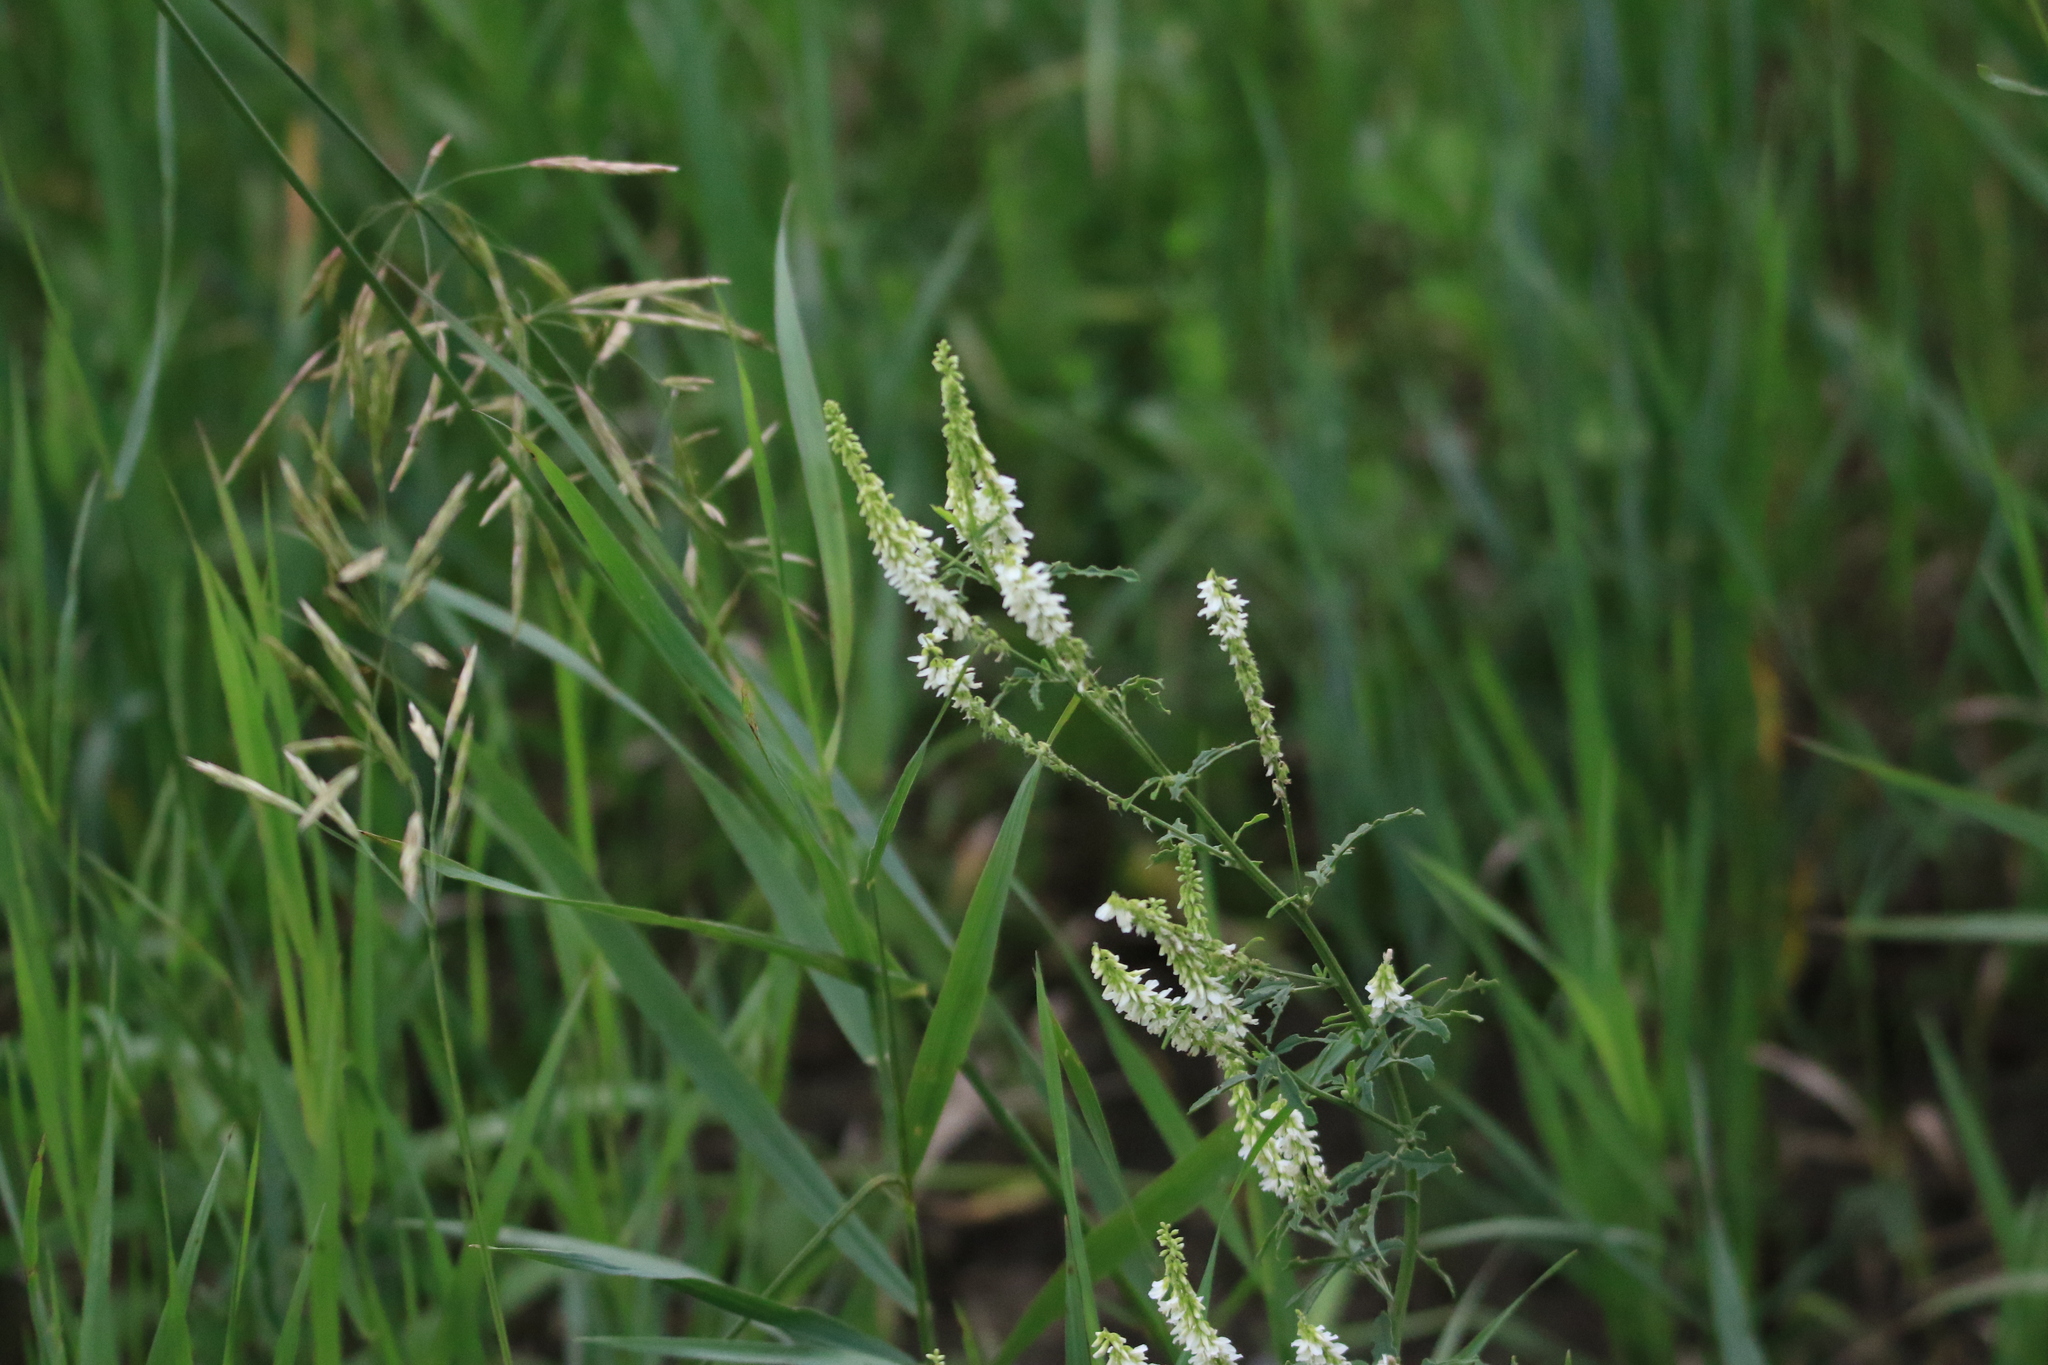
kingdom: Plantae
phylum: Tracheophyta
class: Magnoliopsida
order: Fabales
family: Fabaceae
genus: Melilotus
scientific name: Melilotus albus
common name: White melilot
